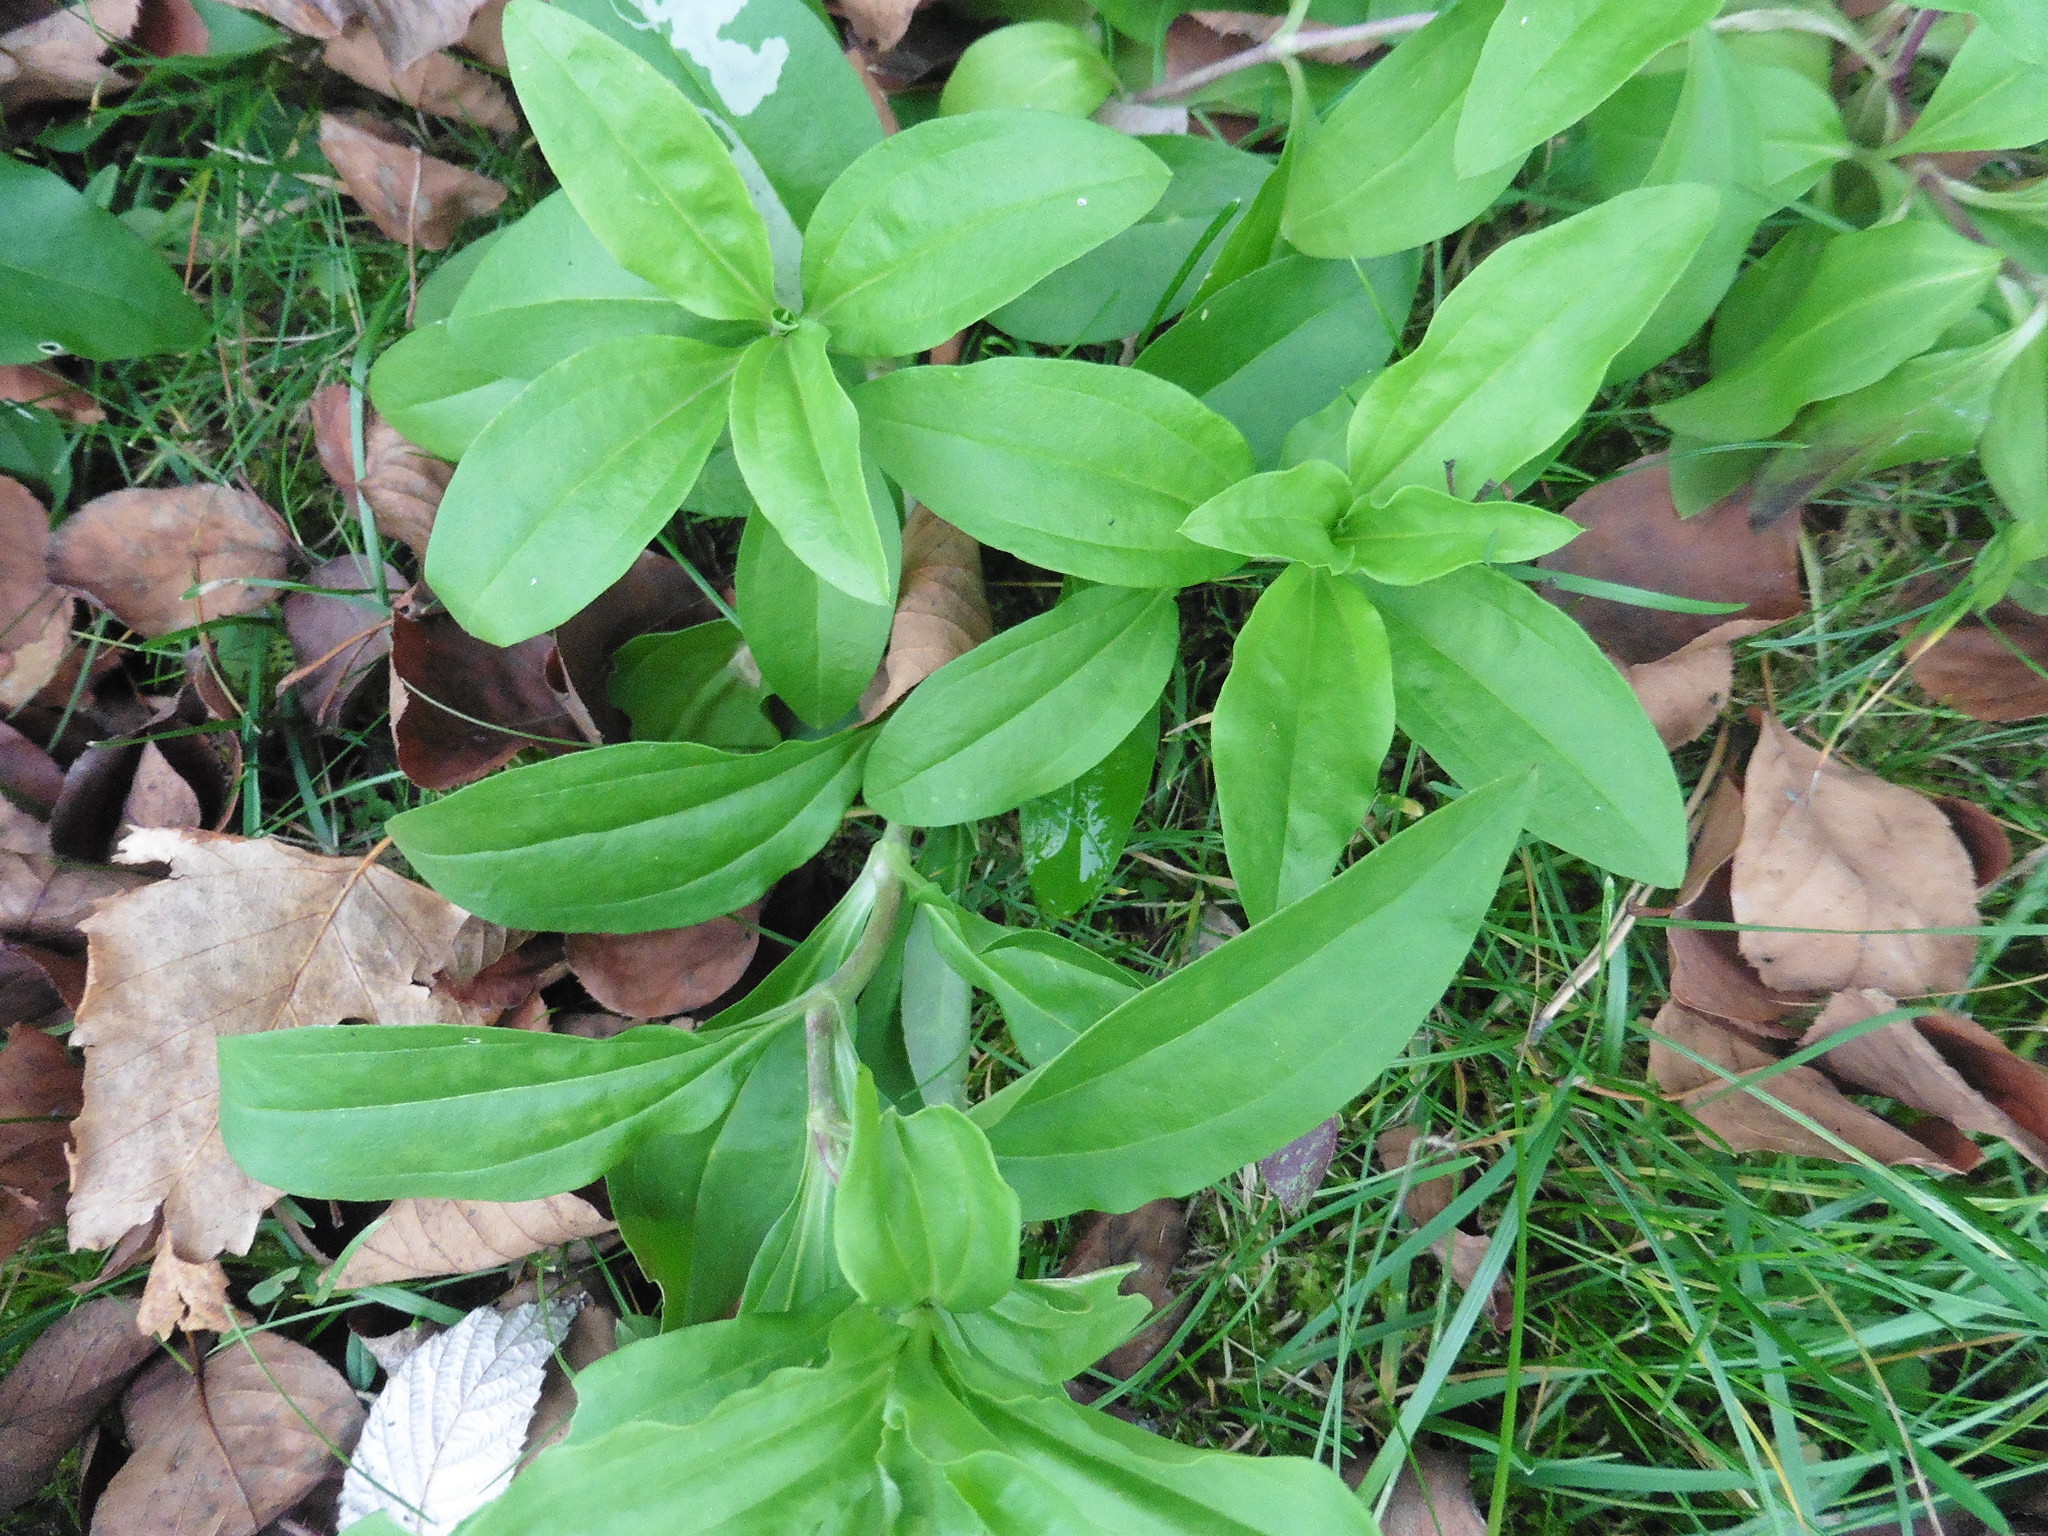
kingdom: Plantae
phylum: Tracheophyta
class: Magnoliopsida
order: Caryophyllales
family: Caryophyllaceae
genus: Saponaria
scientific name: Saponaria officinalis
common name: Soapwort
